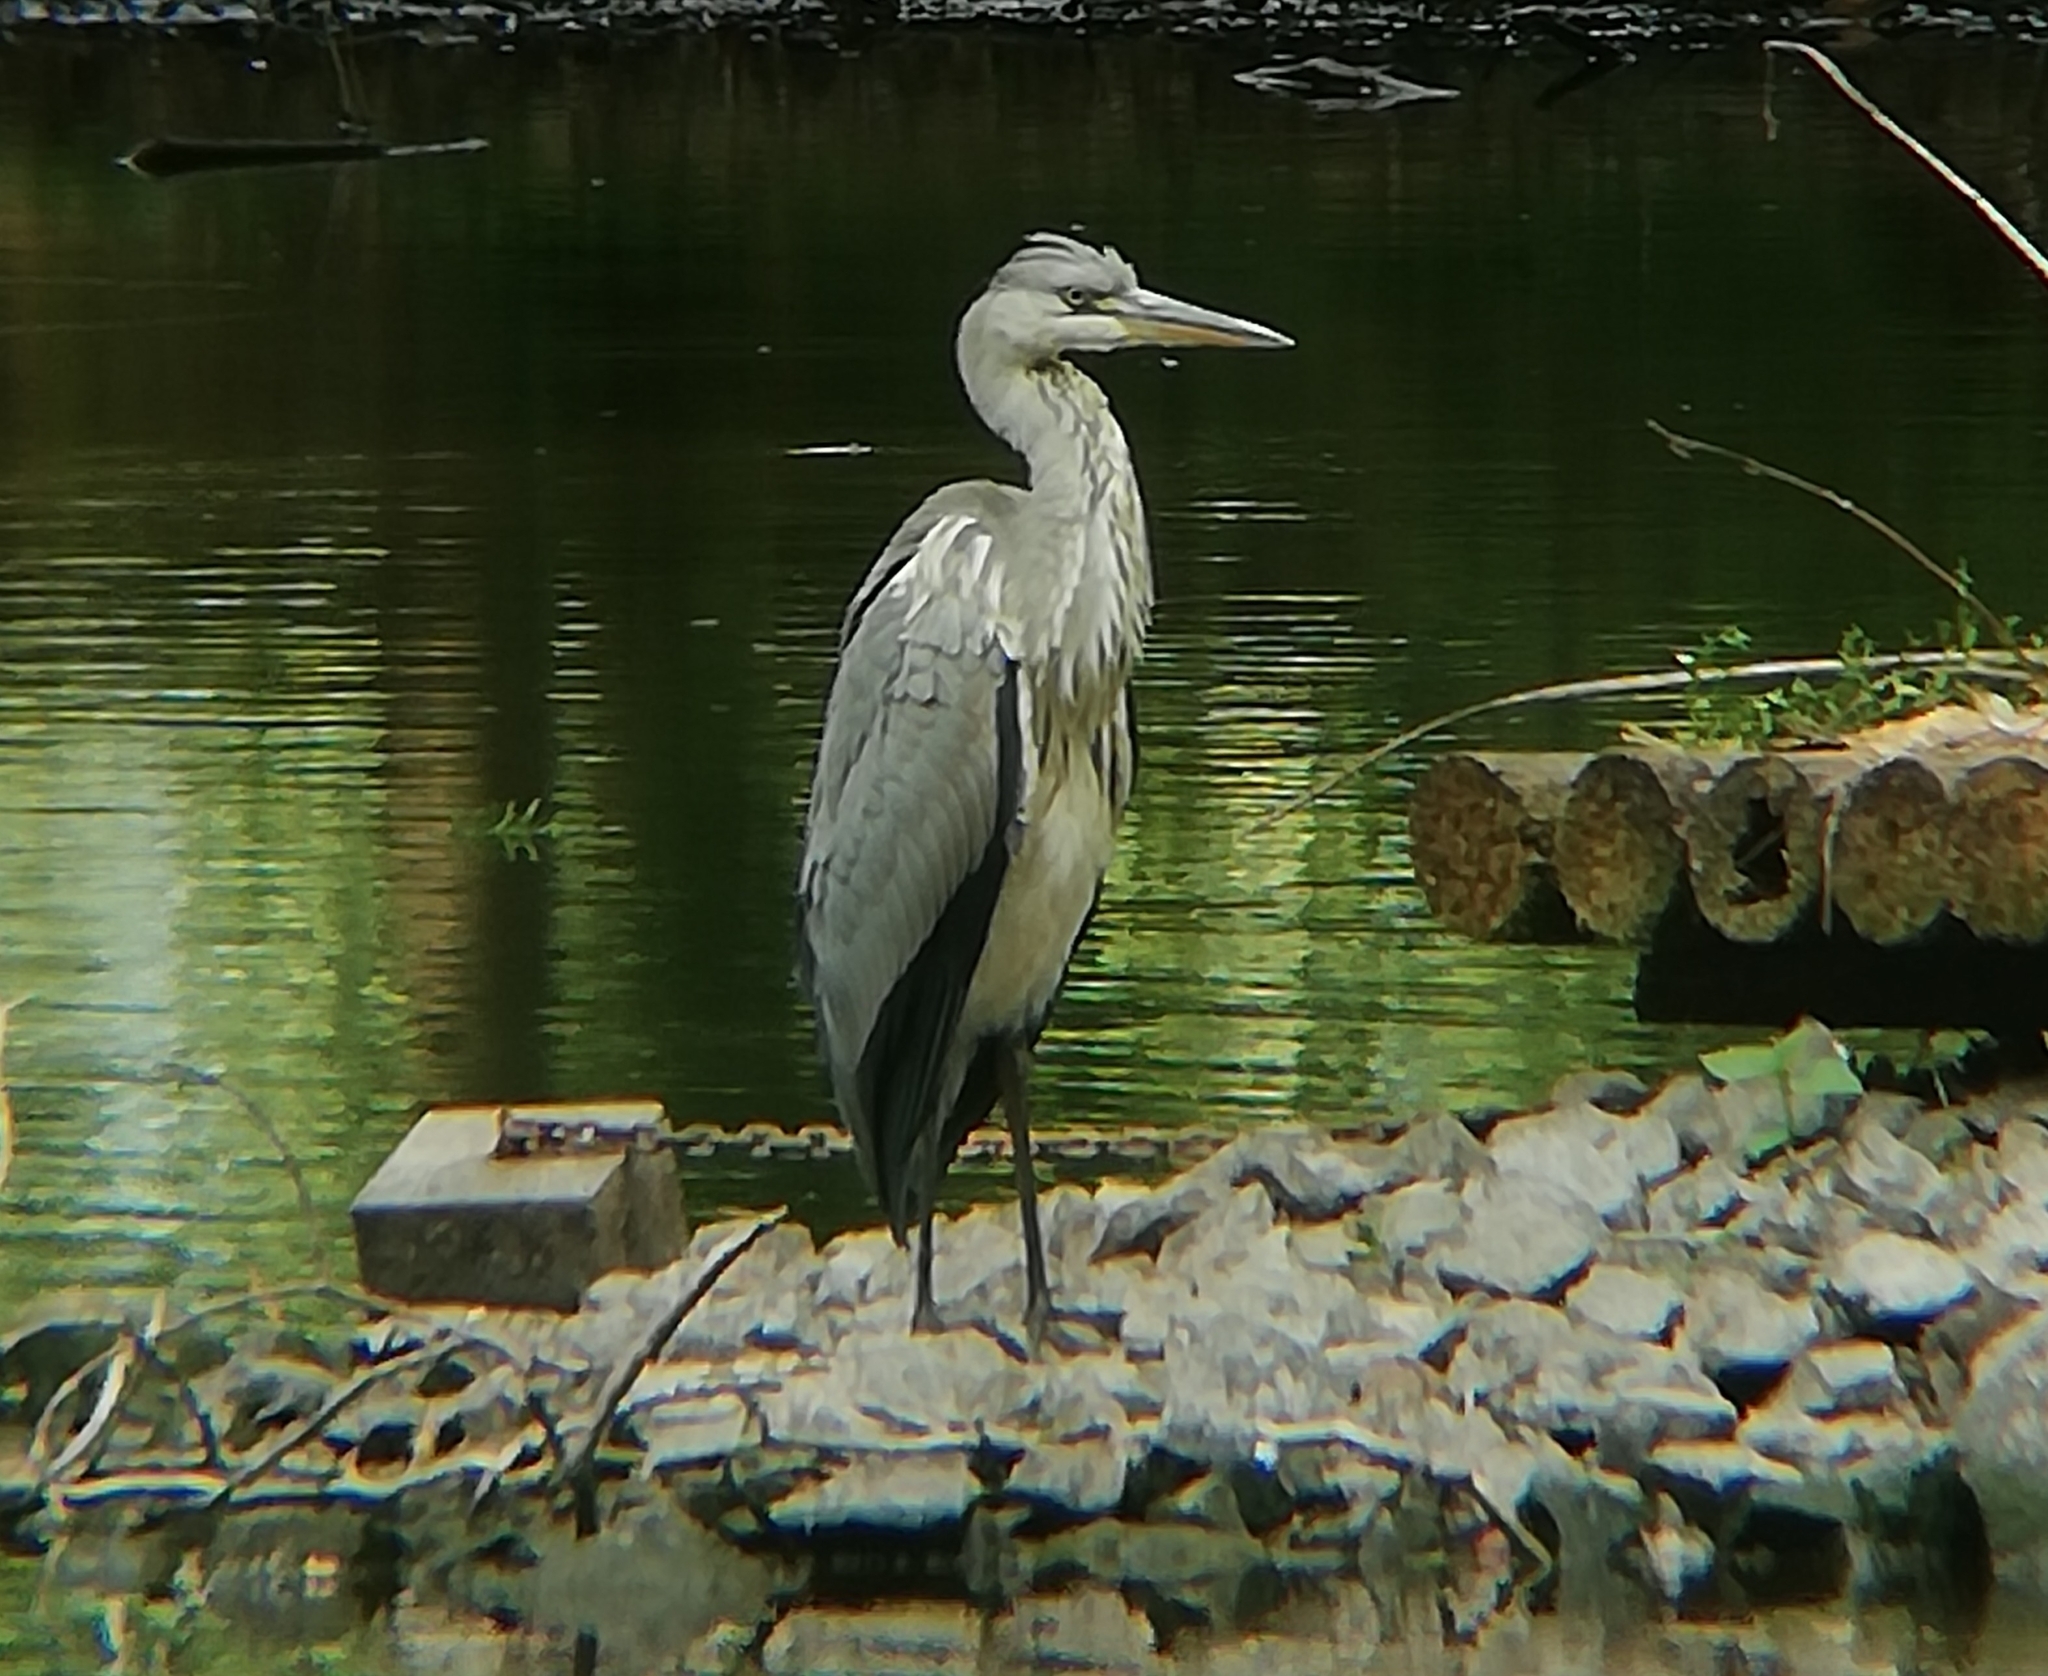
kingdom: Animalia
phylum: Chordata
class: Aves
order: Pelecaniformes
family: Ardeidae
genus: Ardea
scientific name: Ardea cinerea
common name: Grey heron
